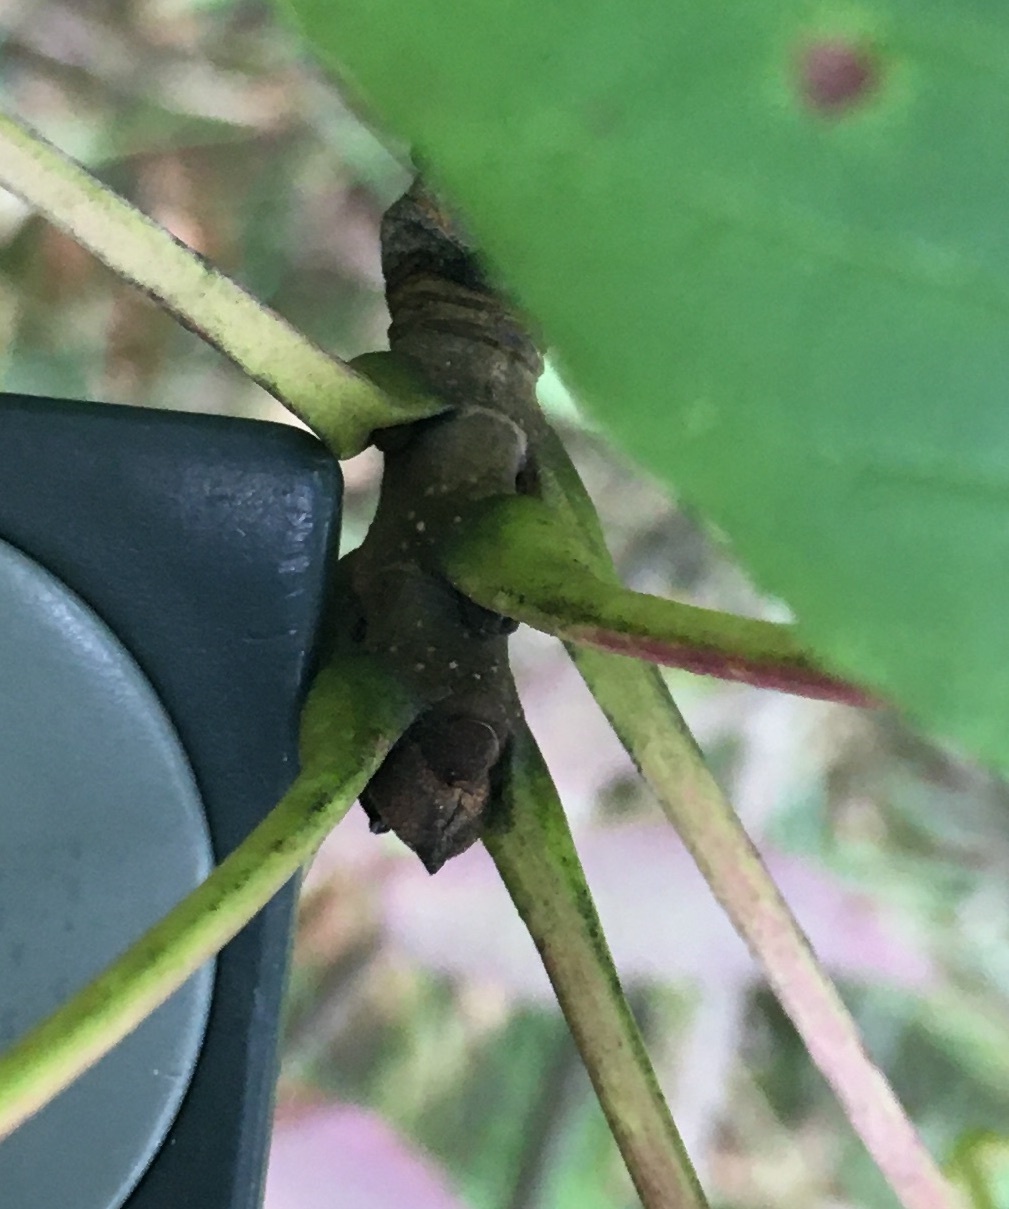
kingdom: Plantae
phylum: Tracheophyta
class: Magnoliopsida
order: Lamiales
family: Oleaceae
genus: Fraxinus
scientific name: Fraxinus americana
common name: White ash
